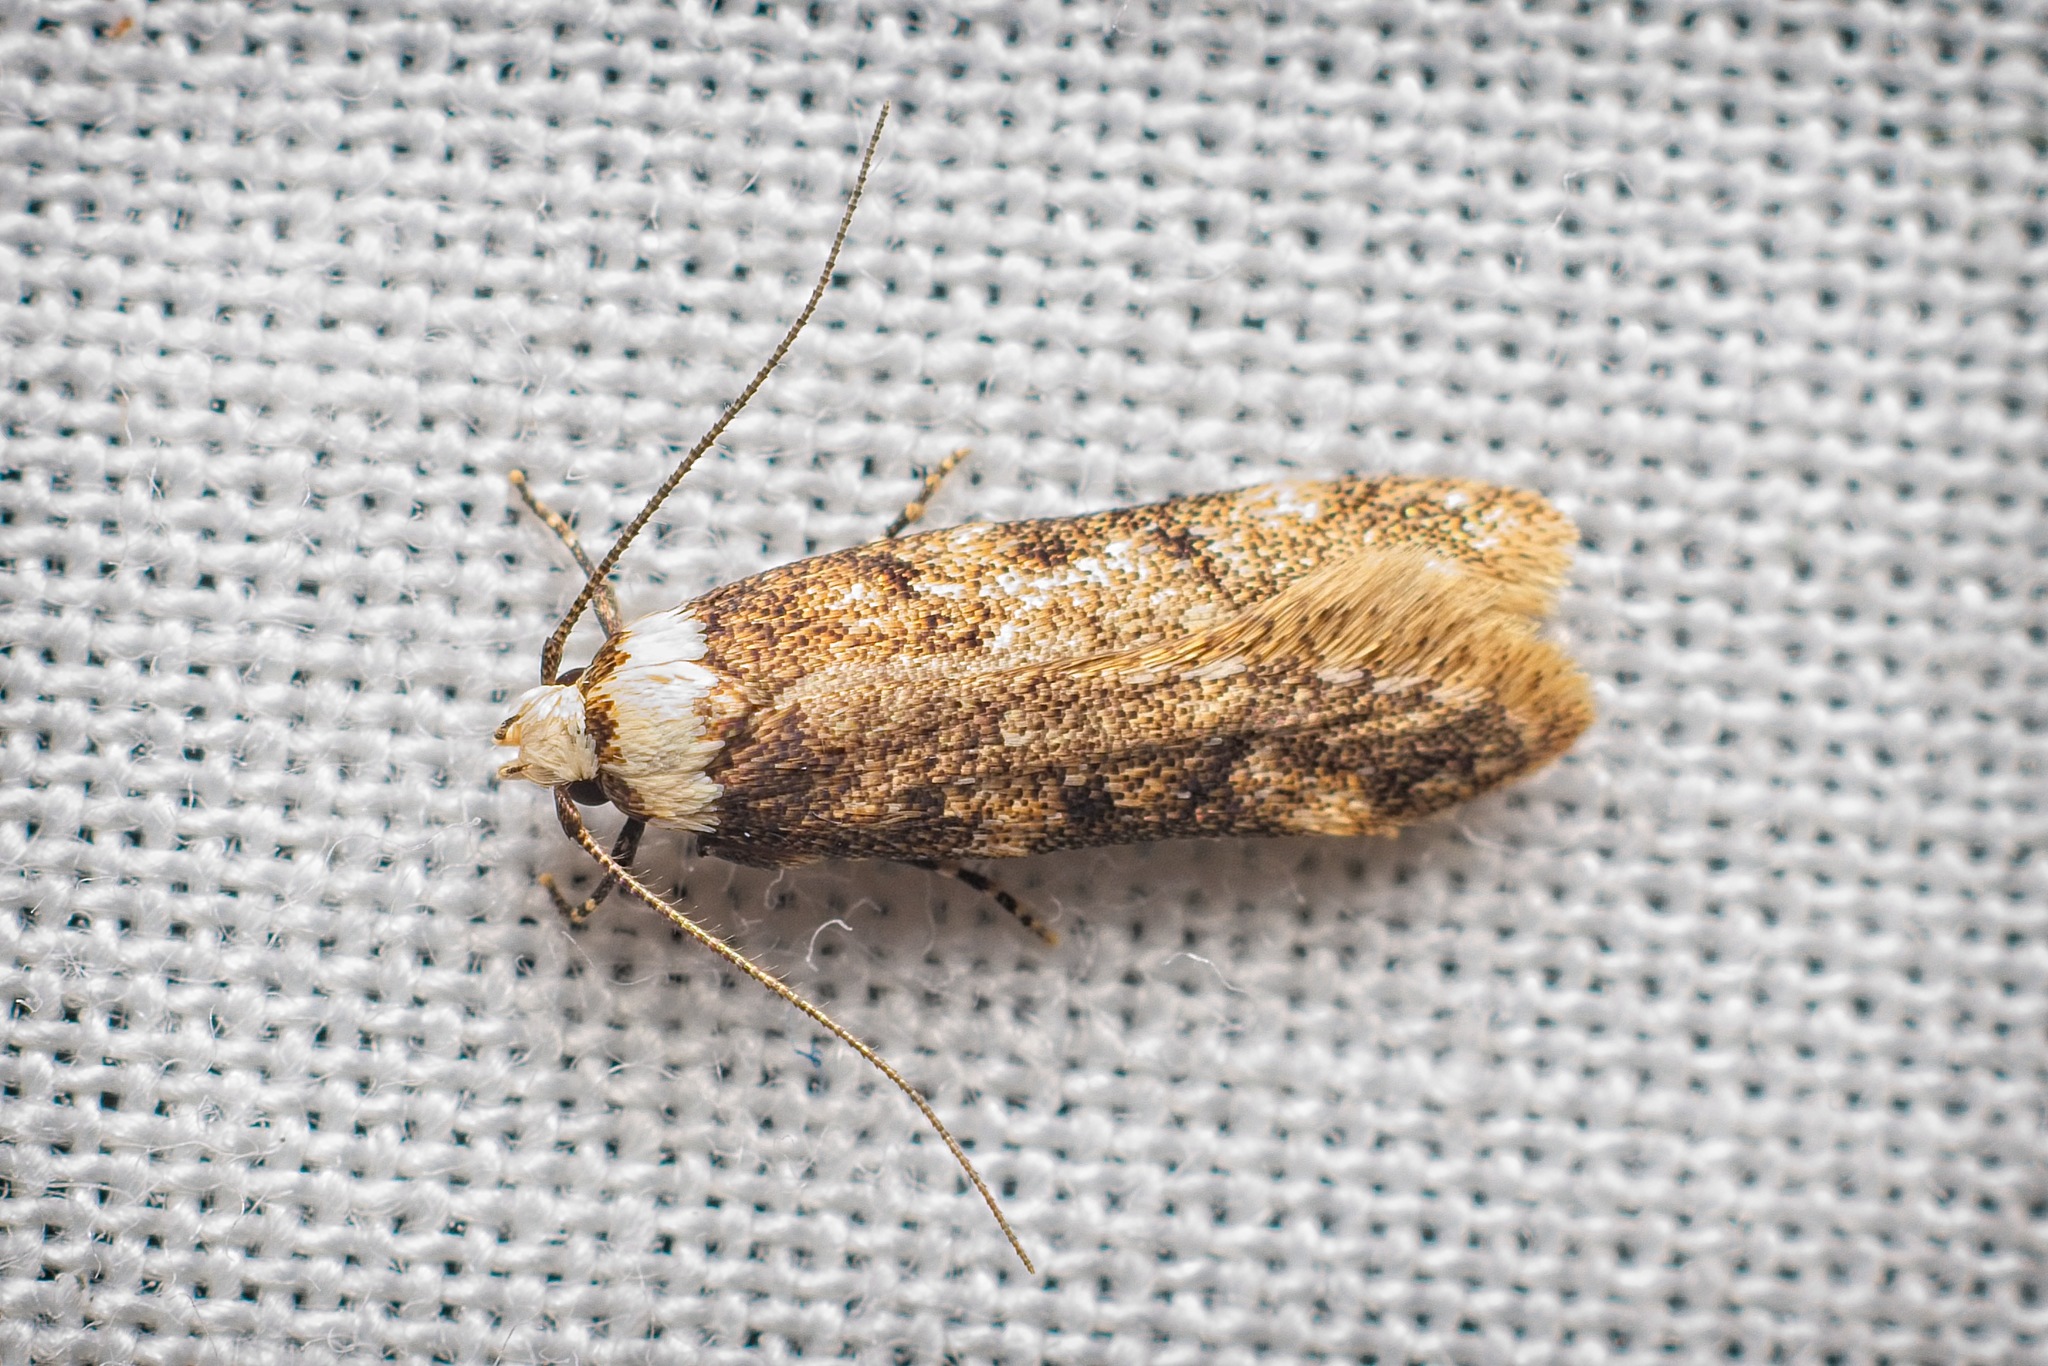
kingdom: Animalia
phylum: Arthropoda
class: Insecta
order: Lepidoptera
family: Oecophoridae
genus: Endrosis
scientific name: Endrosis sarcitrella
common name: White-shouldered house moth
